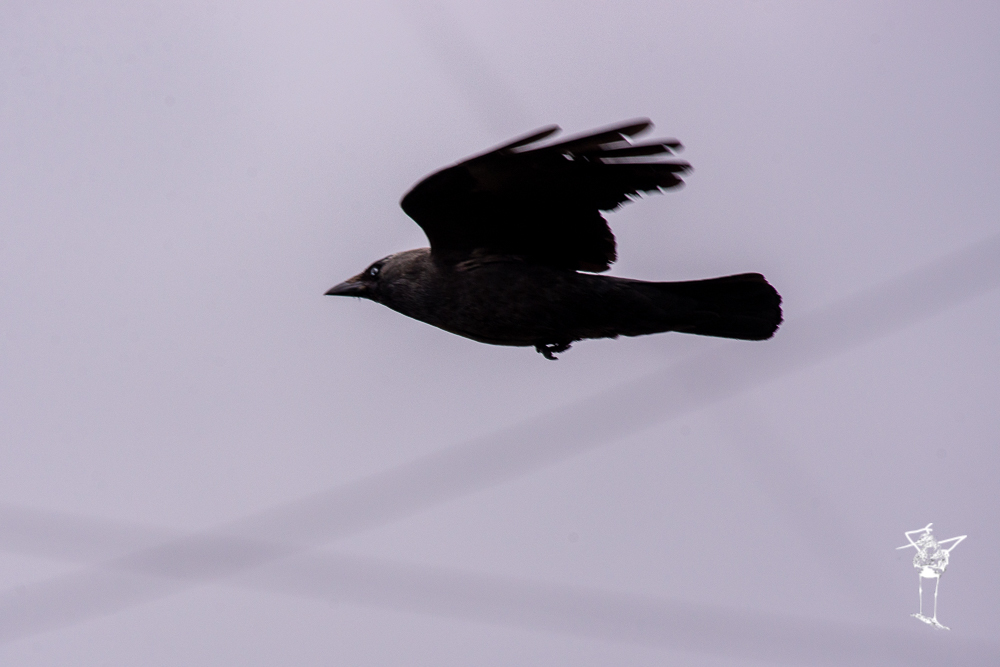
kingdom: Animalia
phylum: Chordata
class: Aves
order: Passeriformes
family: Corvidae
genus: Coloeus
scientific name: Coloeus monedula
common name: Western jackdaw
